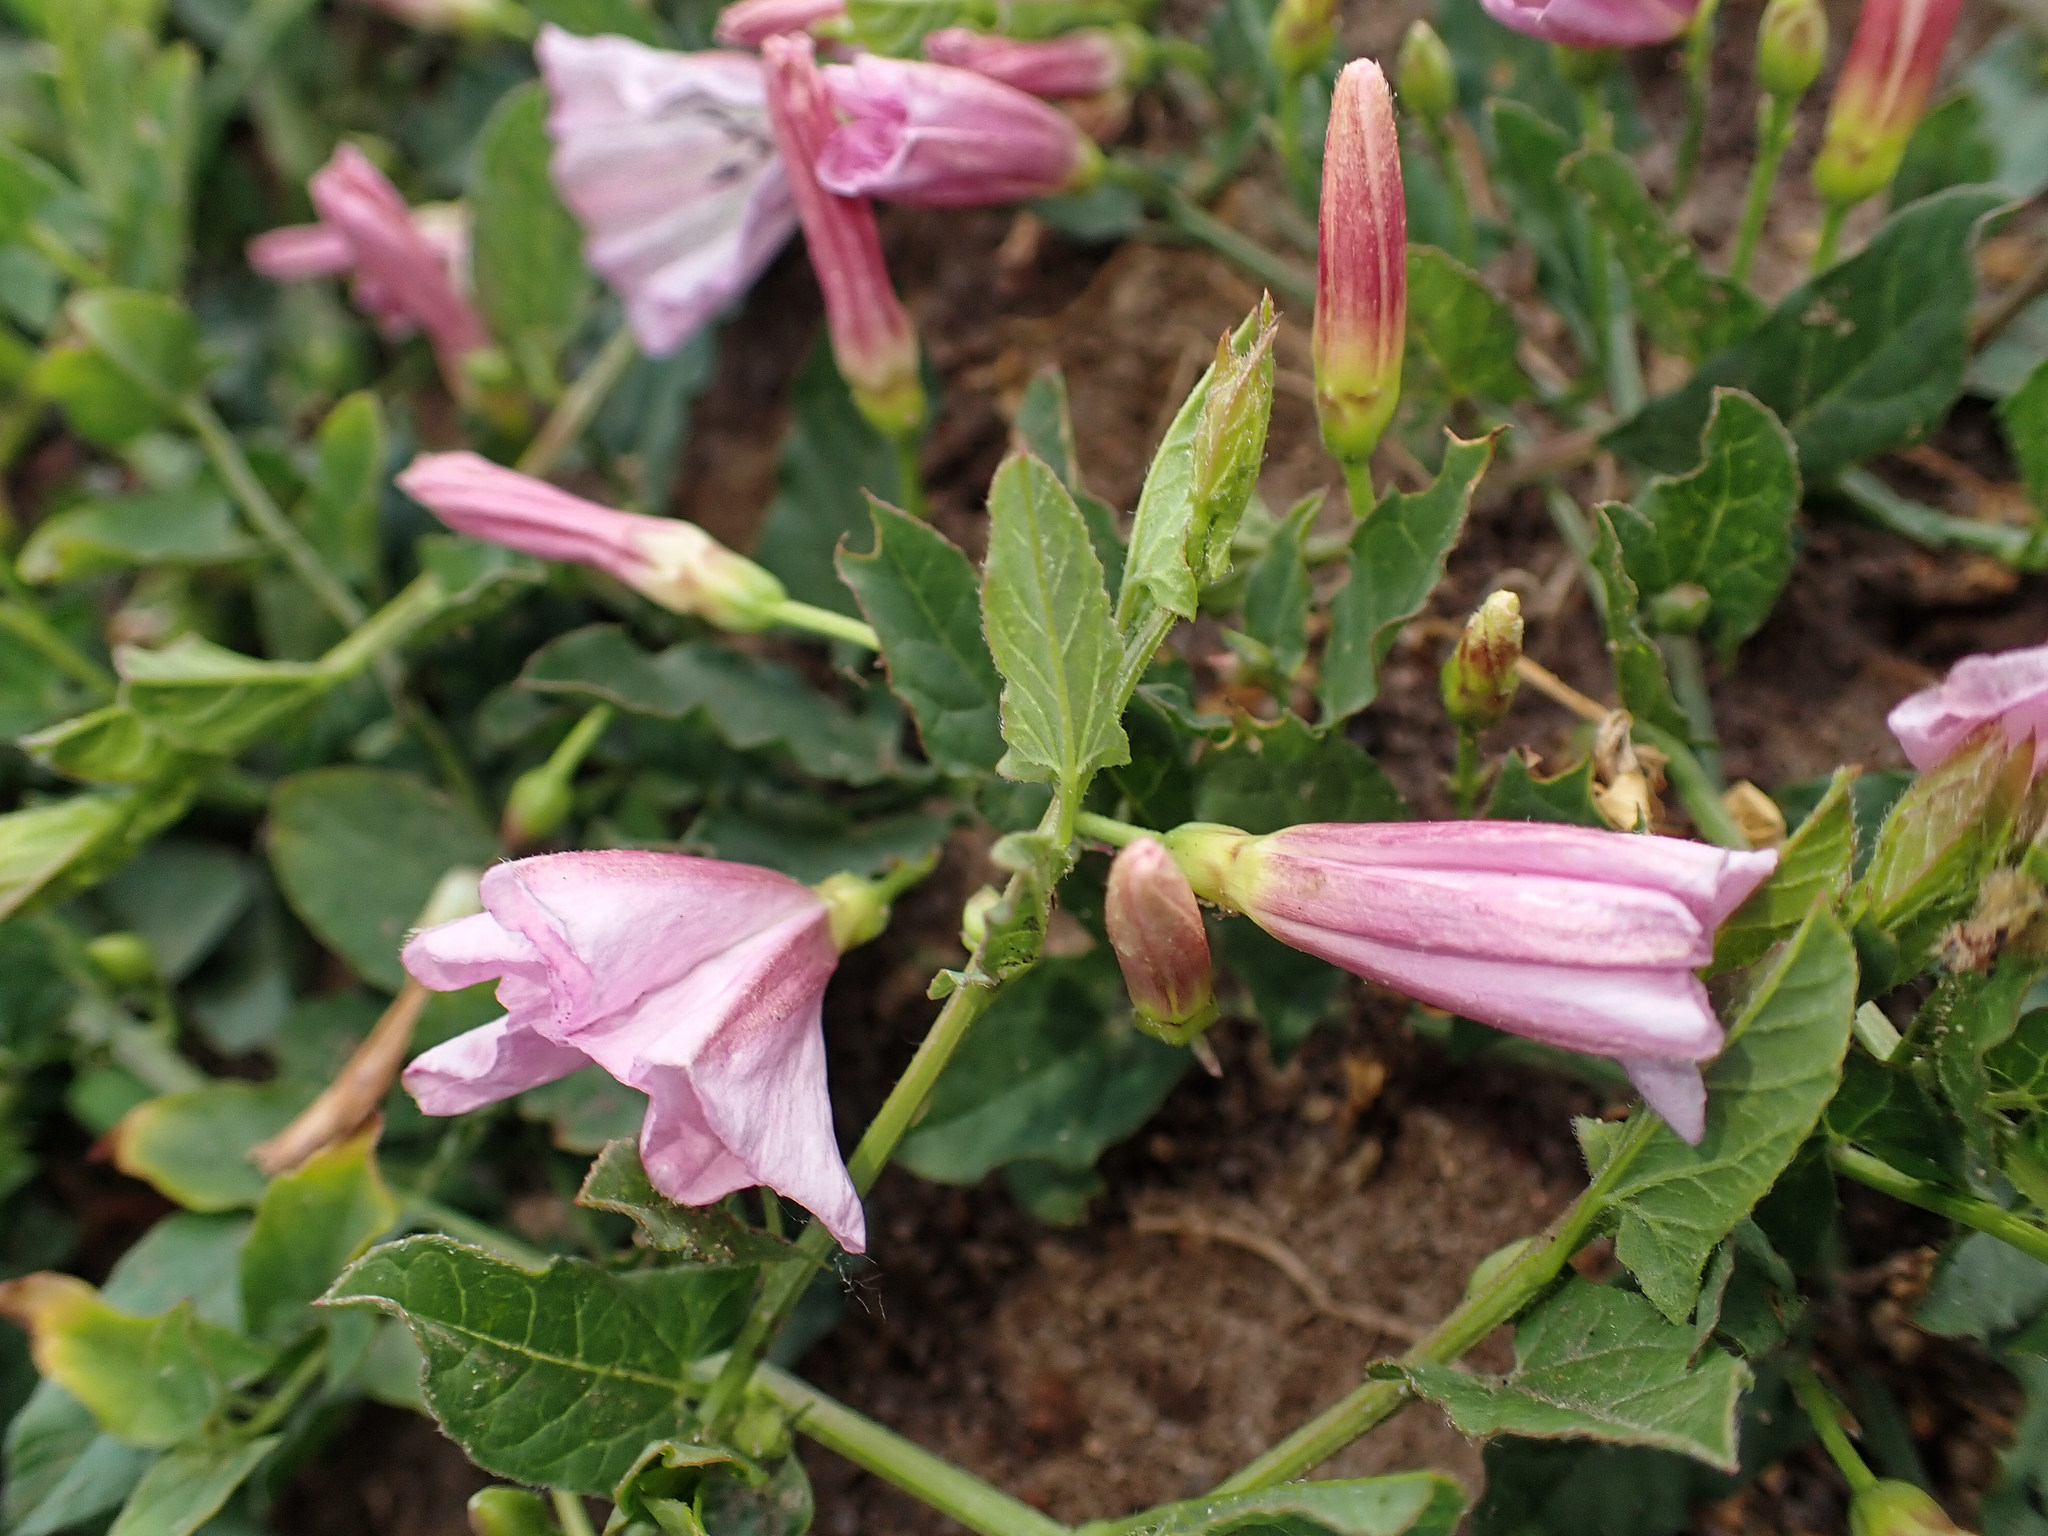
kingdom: Plantae
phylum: Tracheophyta
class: Magnoliopsida
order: Solanales
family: Convolvulaceae
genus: Convolvulus
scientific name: Convolvulus arvensis
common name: Field bindweed
